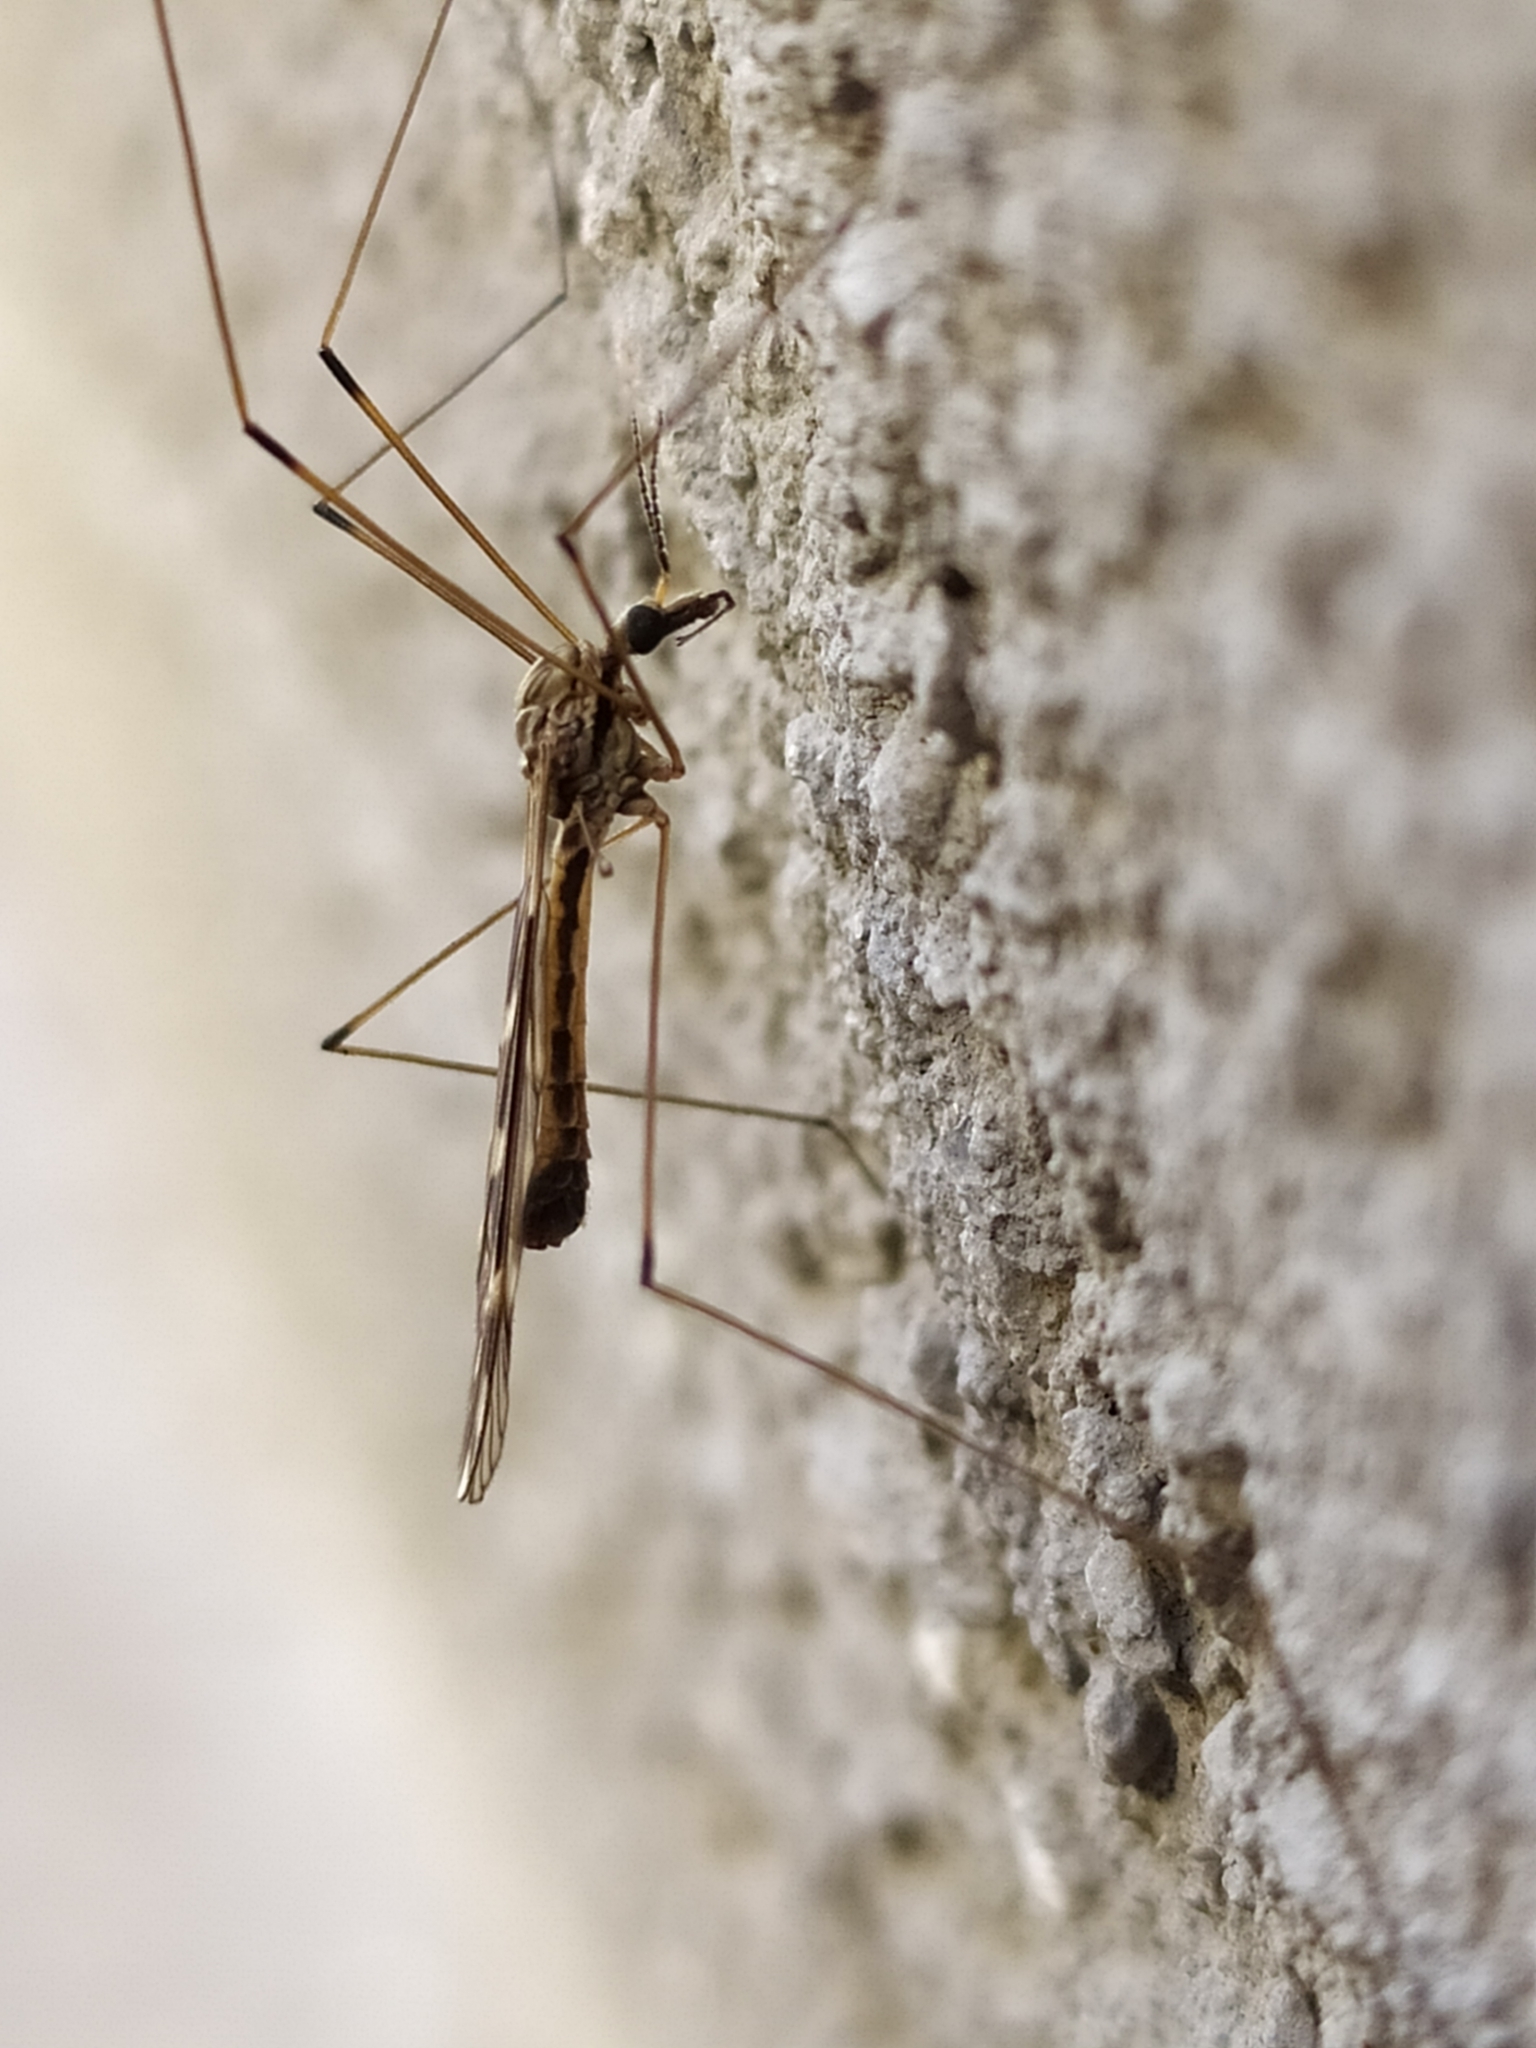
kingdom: Animalia
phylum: Arthropoda
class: Insecta
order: Diptera
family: Tipulidae
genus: Tipula
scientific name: Tipula rufina
